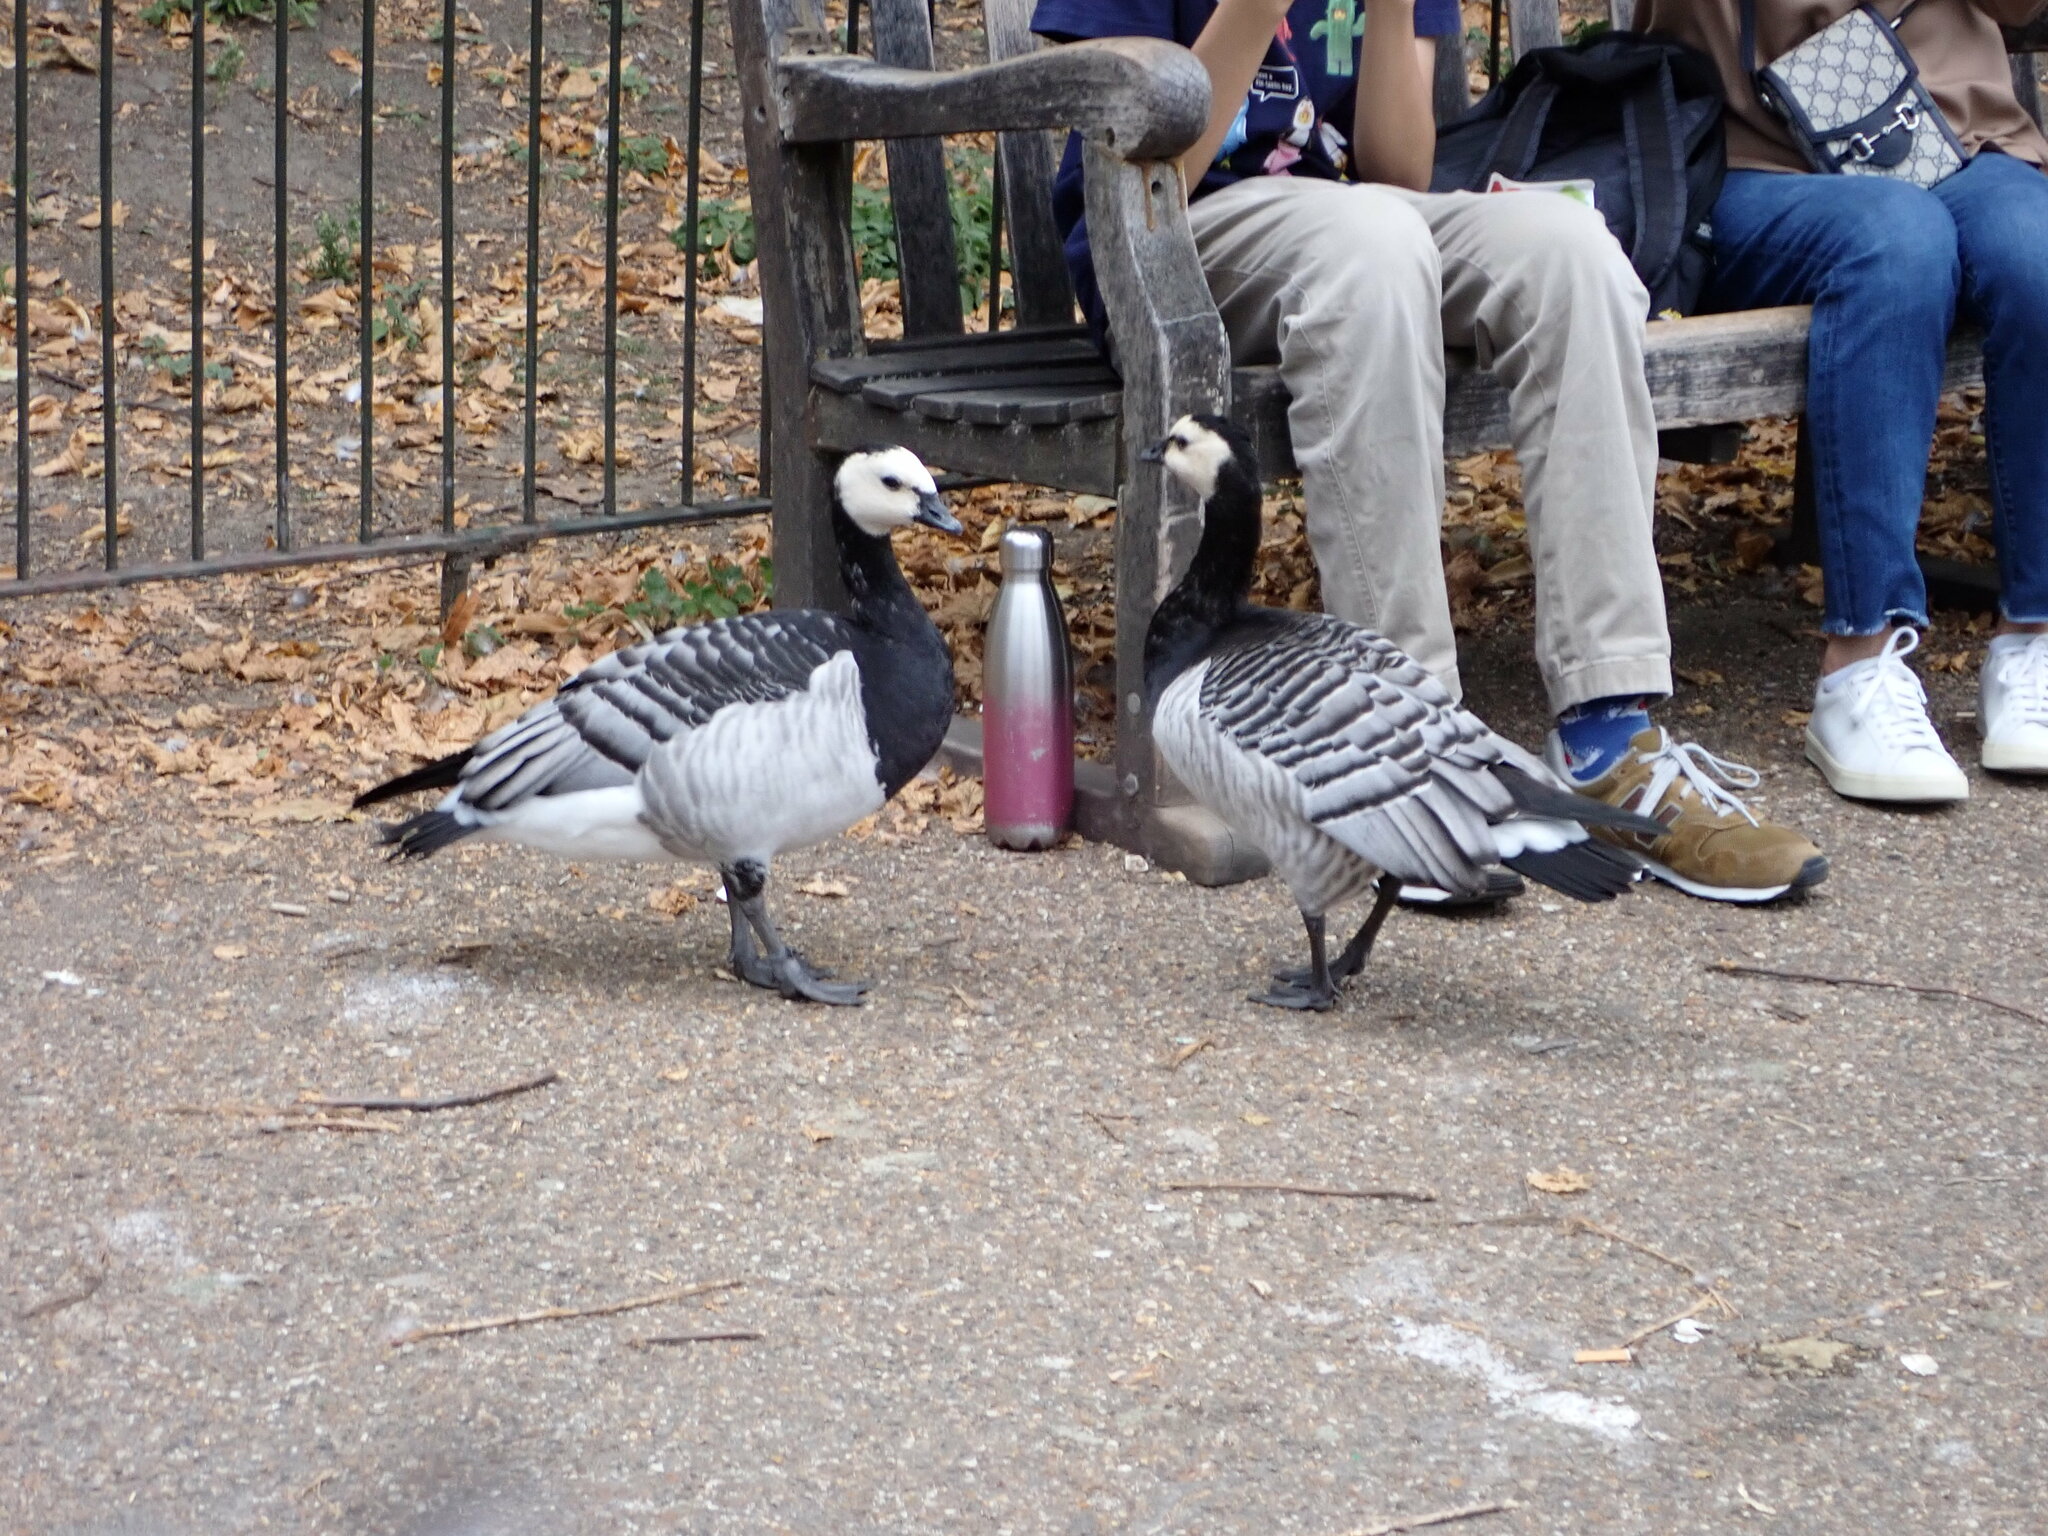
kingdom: Animalia
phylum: Chordata
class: Aves
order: Anseriformes
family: Anatidae
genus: Branta
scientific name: Branta leucopsis
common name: Barnacle goose
